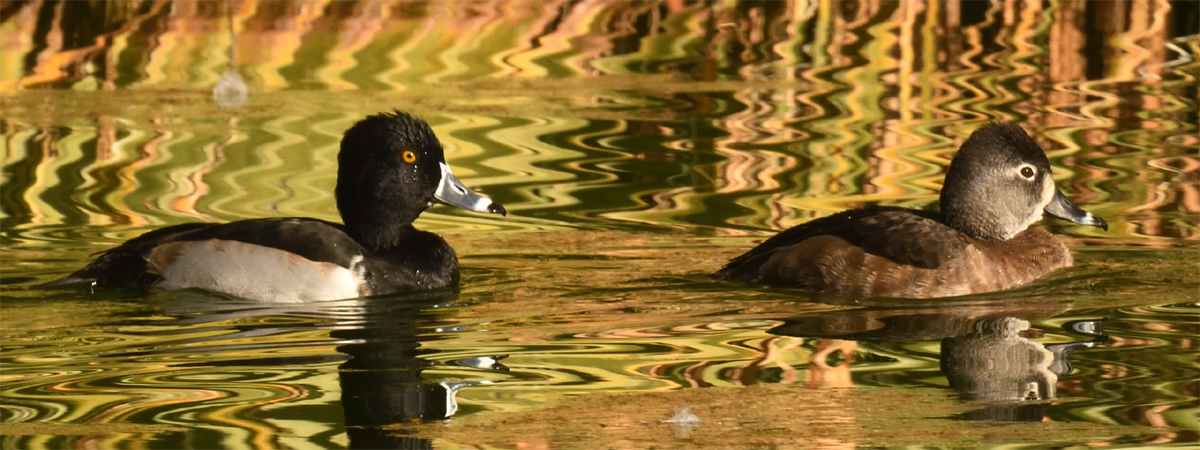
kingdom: Animalia
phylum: Chordata
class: Aves
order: Anseriformes
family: Anatidae
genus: Aythya
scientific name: Aythya collaris
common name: Ring-necked duck
